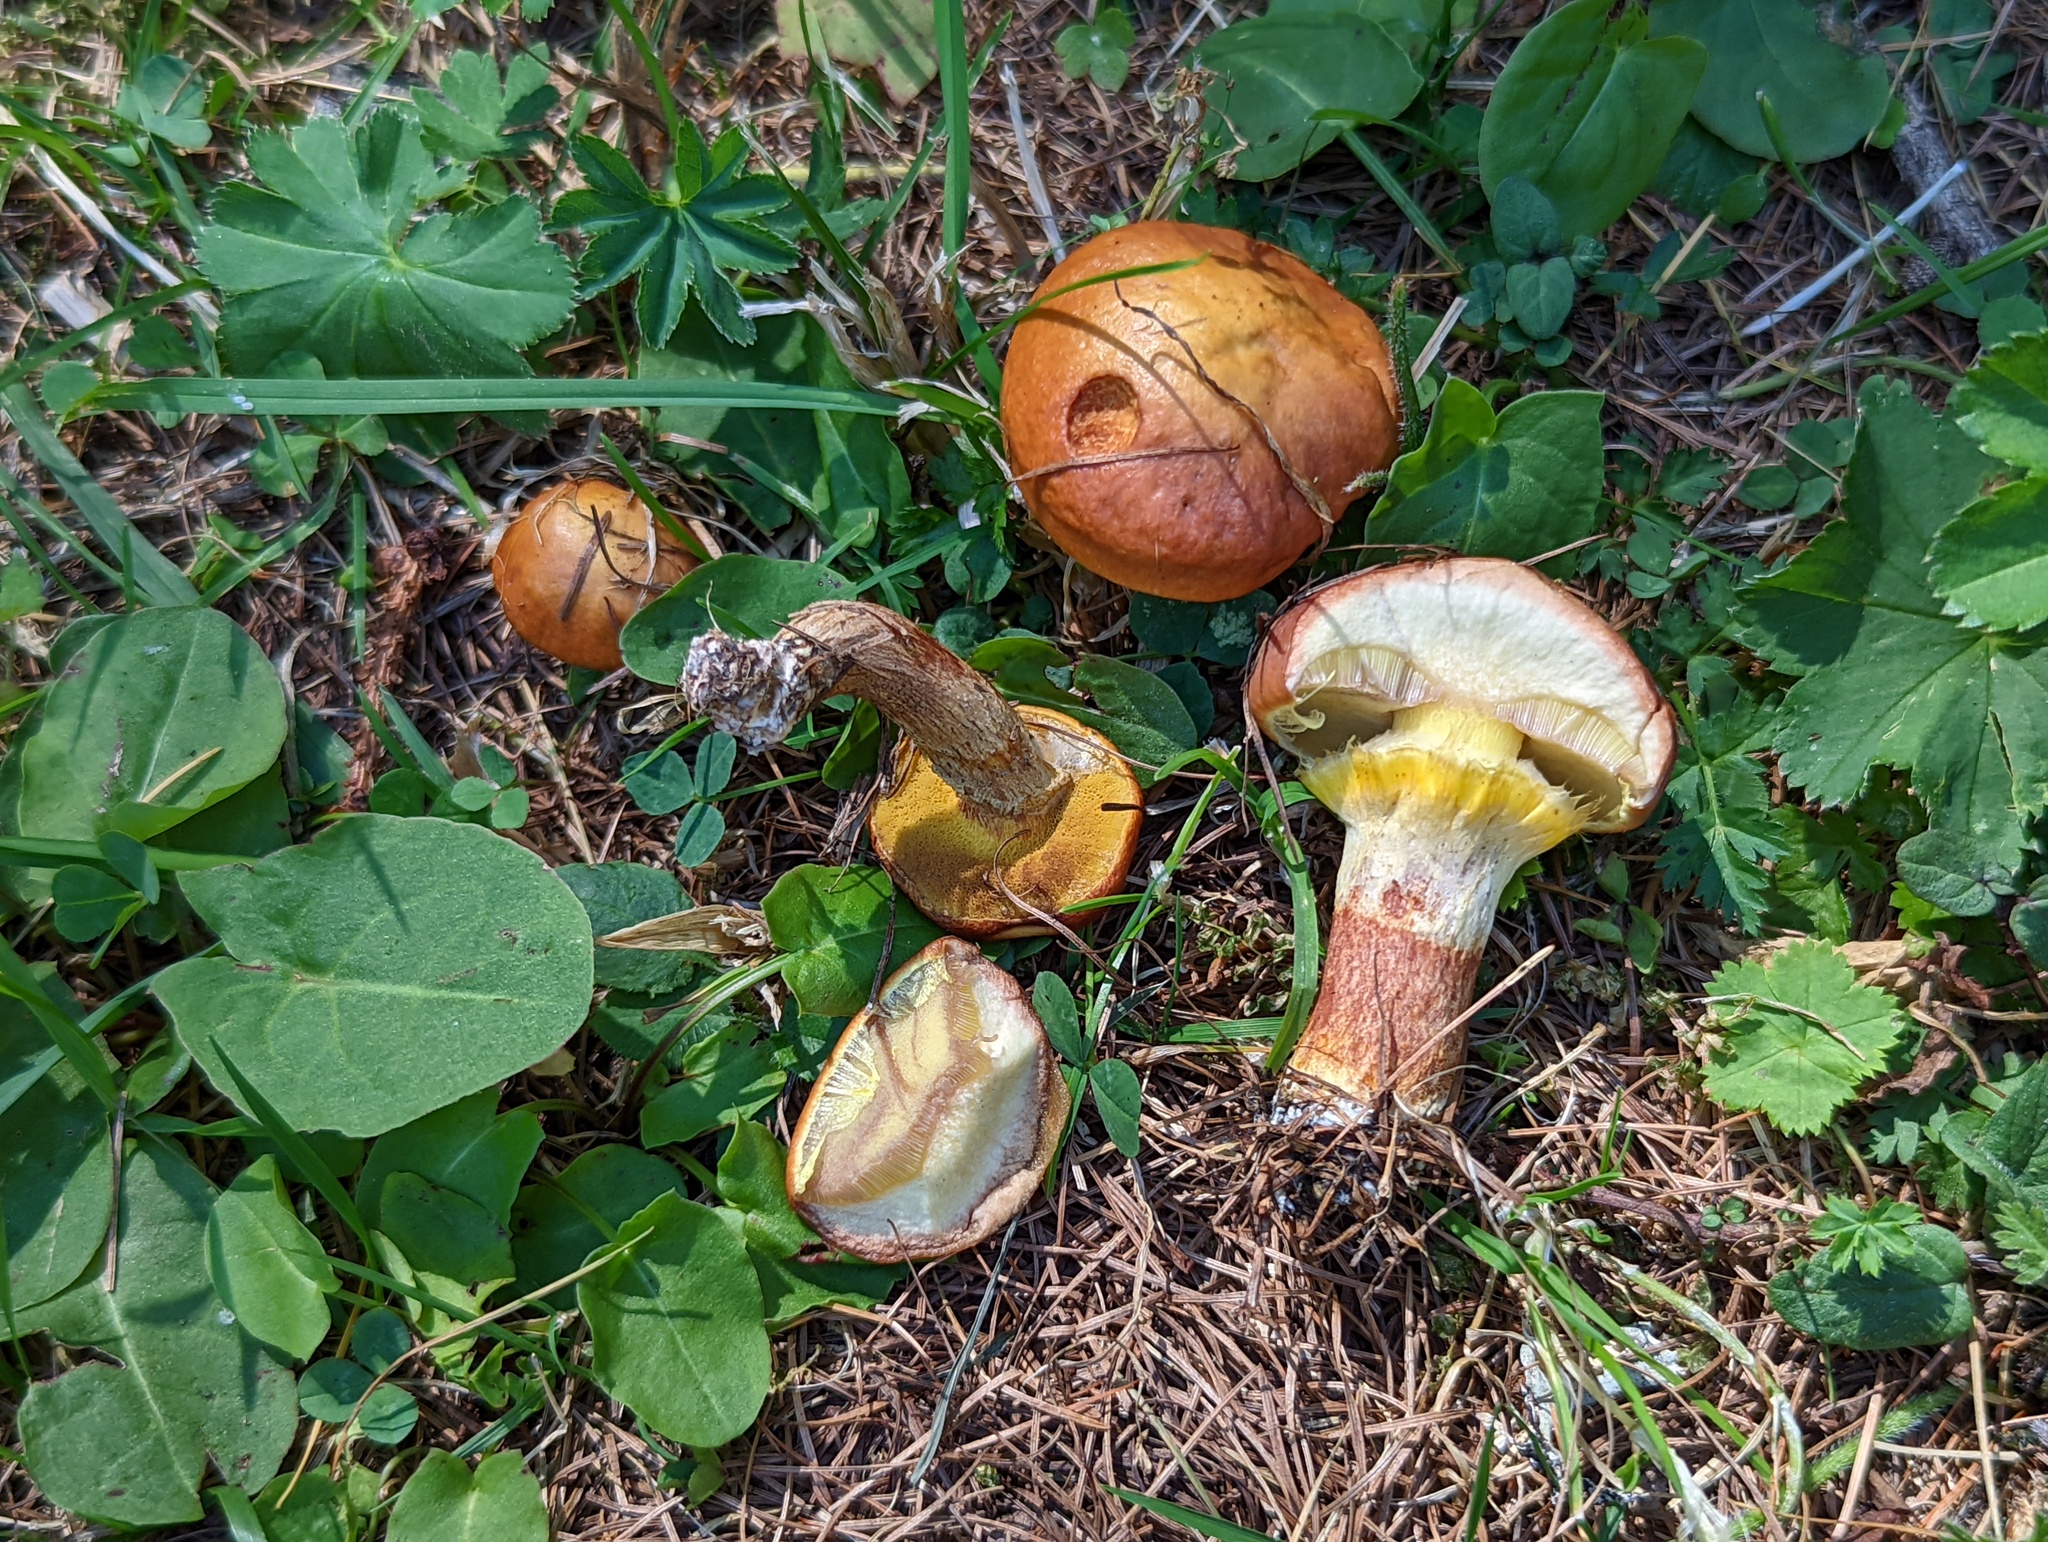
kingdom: Fungi
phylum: Basidiomycota
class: Agaricomycetes
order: Boletales
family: Suillaceae
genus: Suillus
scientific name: Suillus grevillei
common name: Larch bolete
